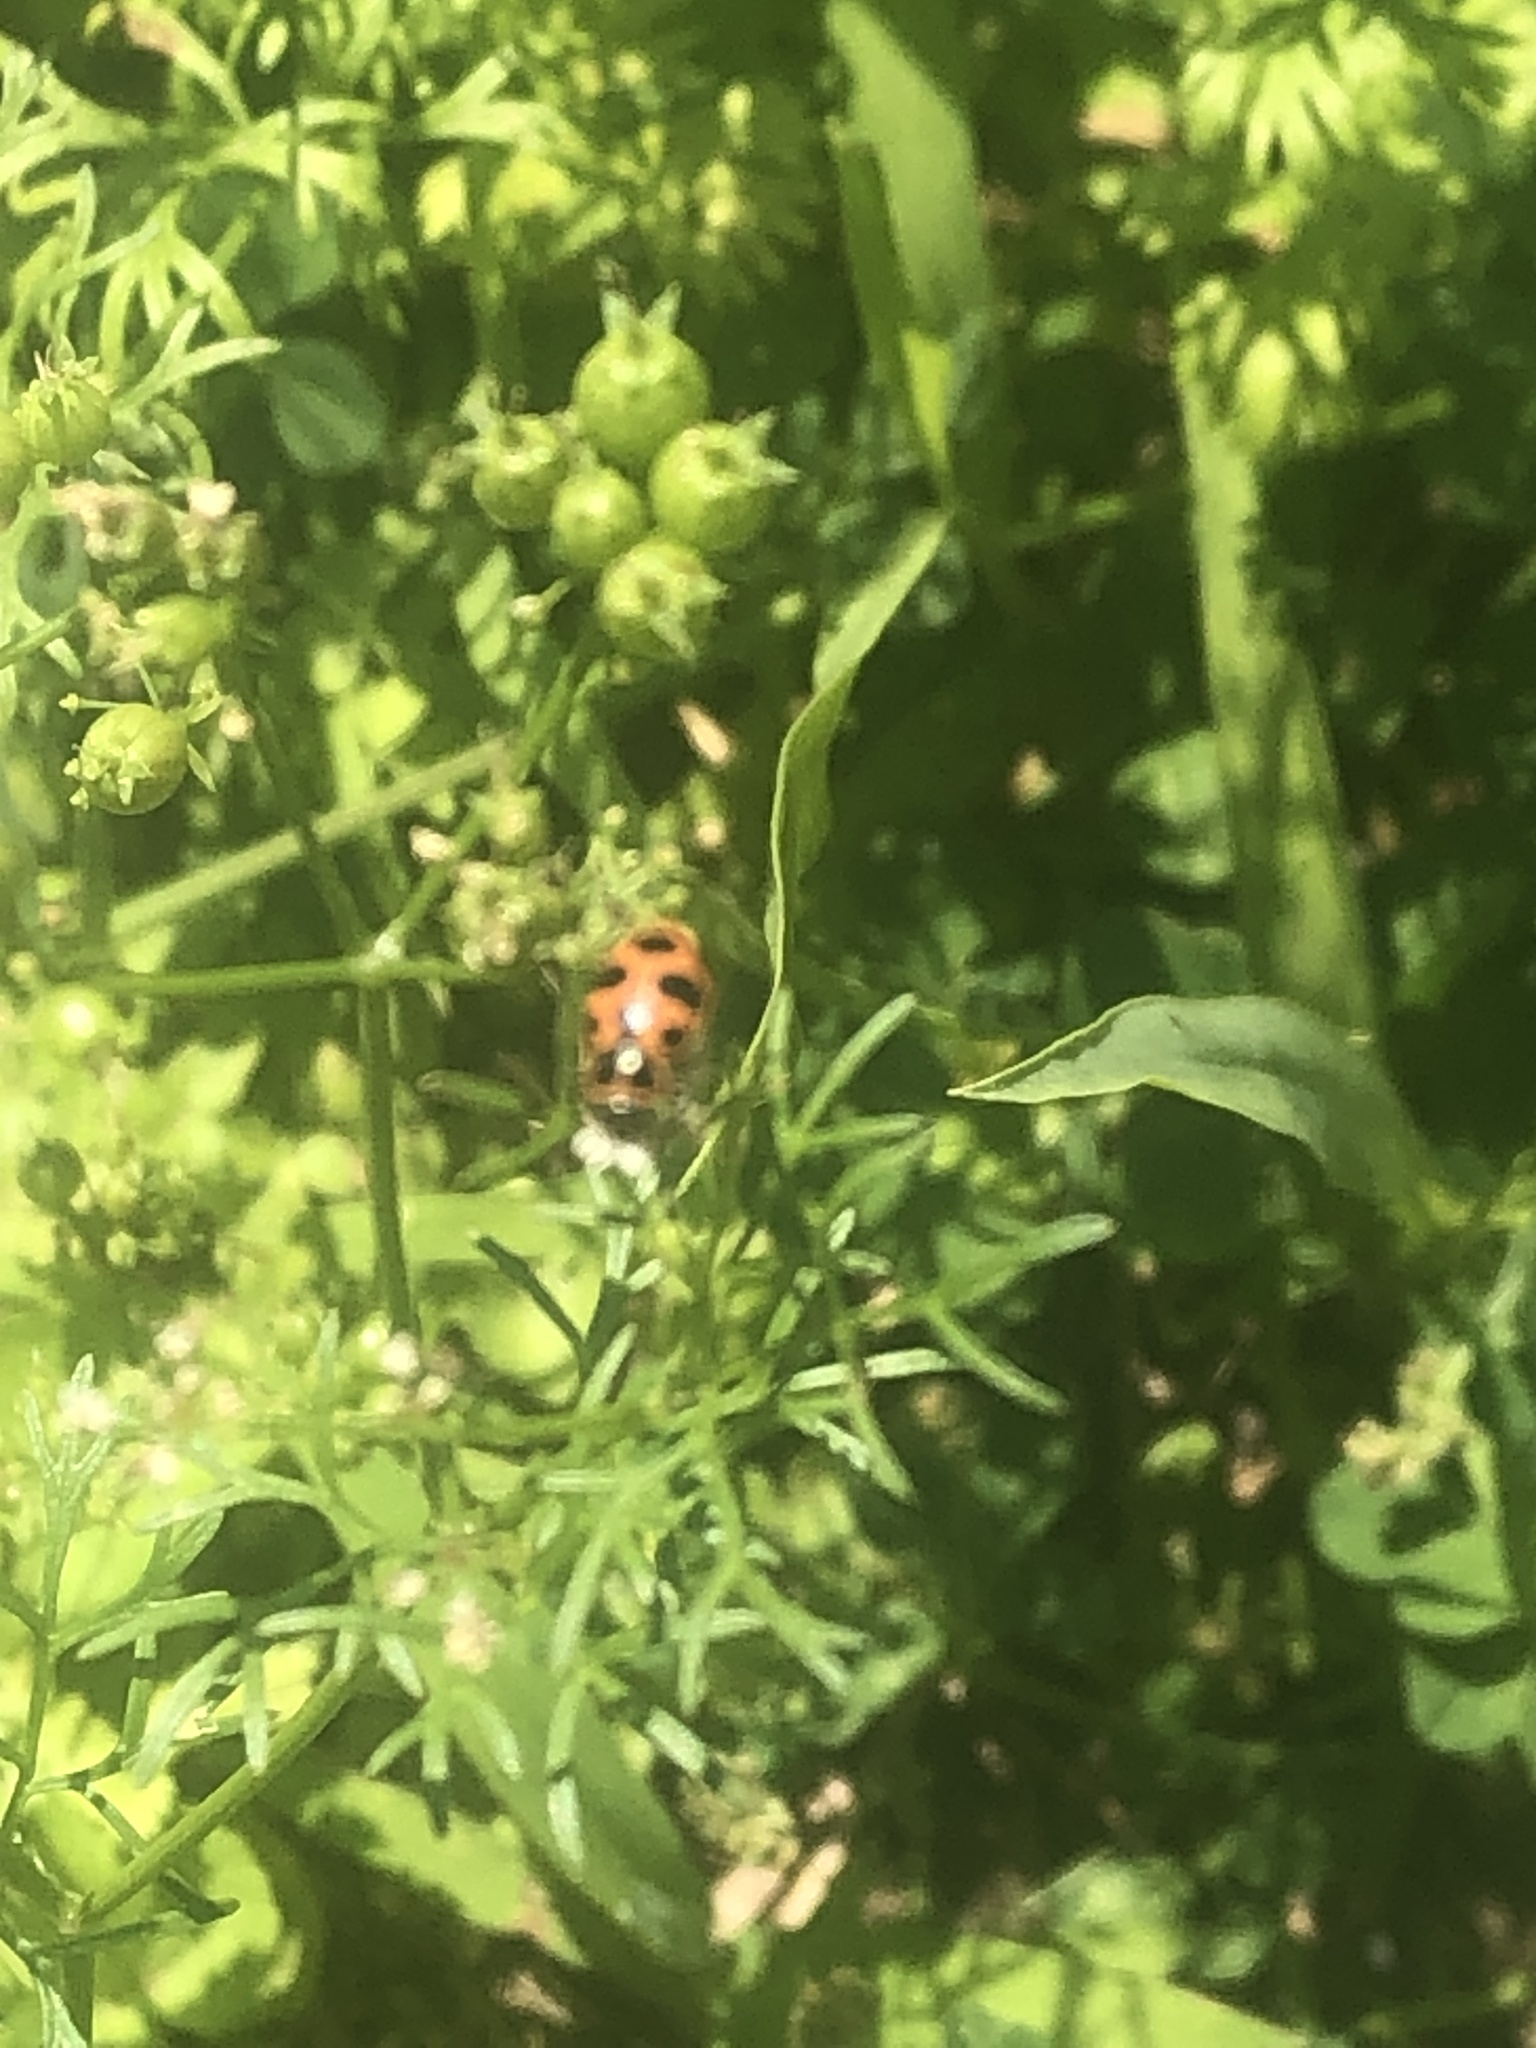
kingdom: Animalia
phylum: Arthropoda
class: Insecta
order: Coleoptera
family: Coccinellidae
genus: Coleomegilla
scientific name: Coleomegilla maculata
